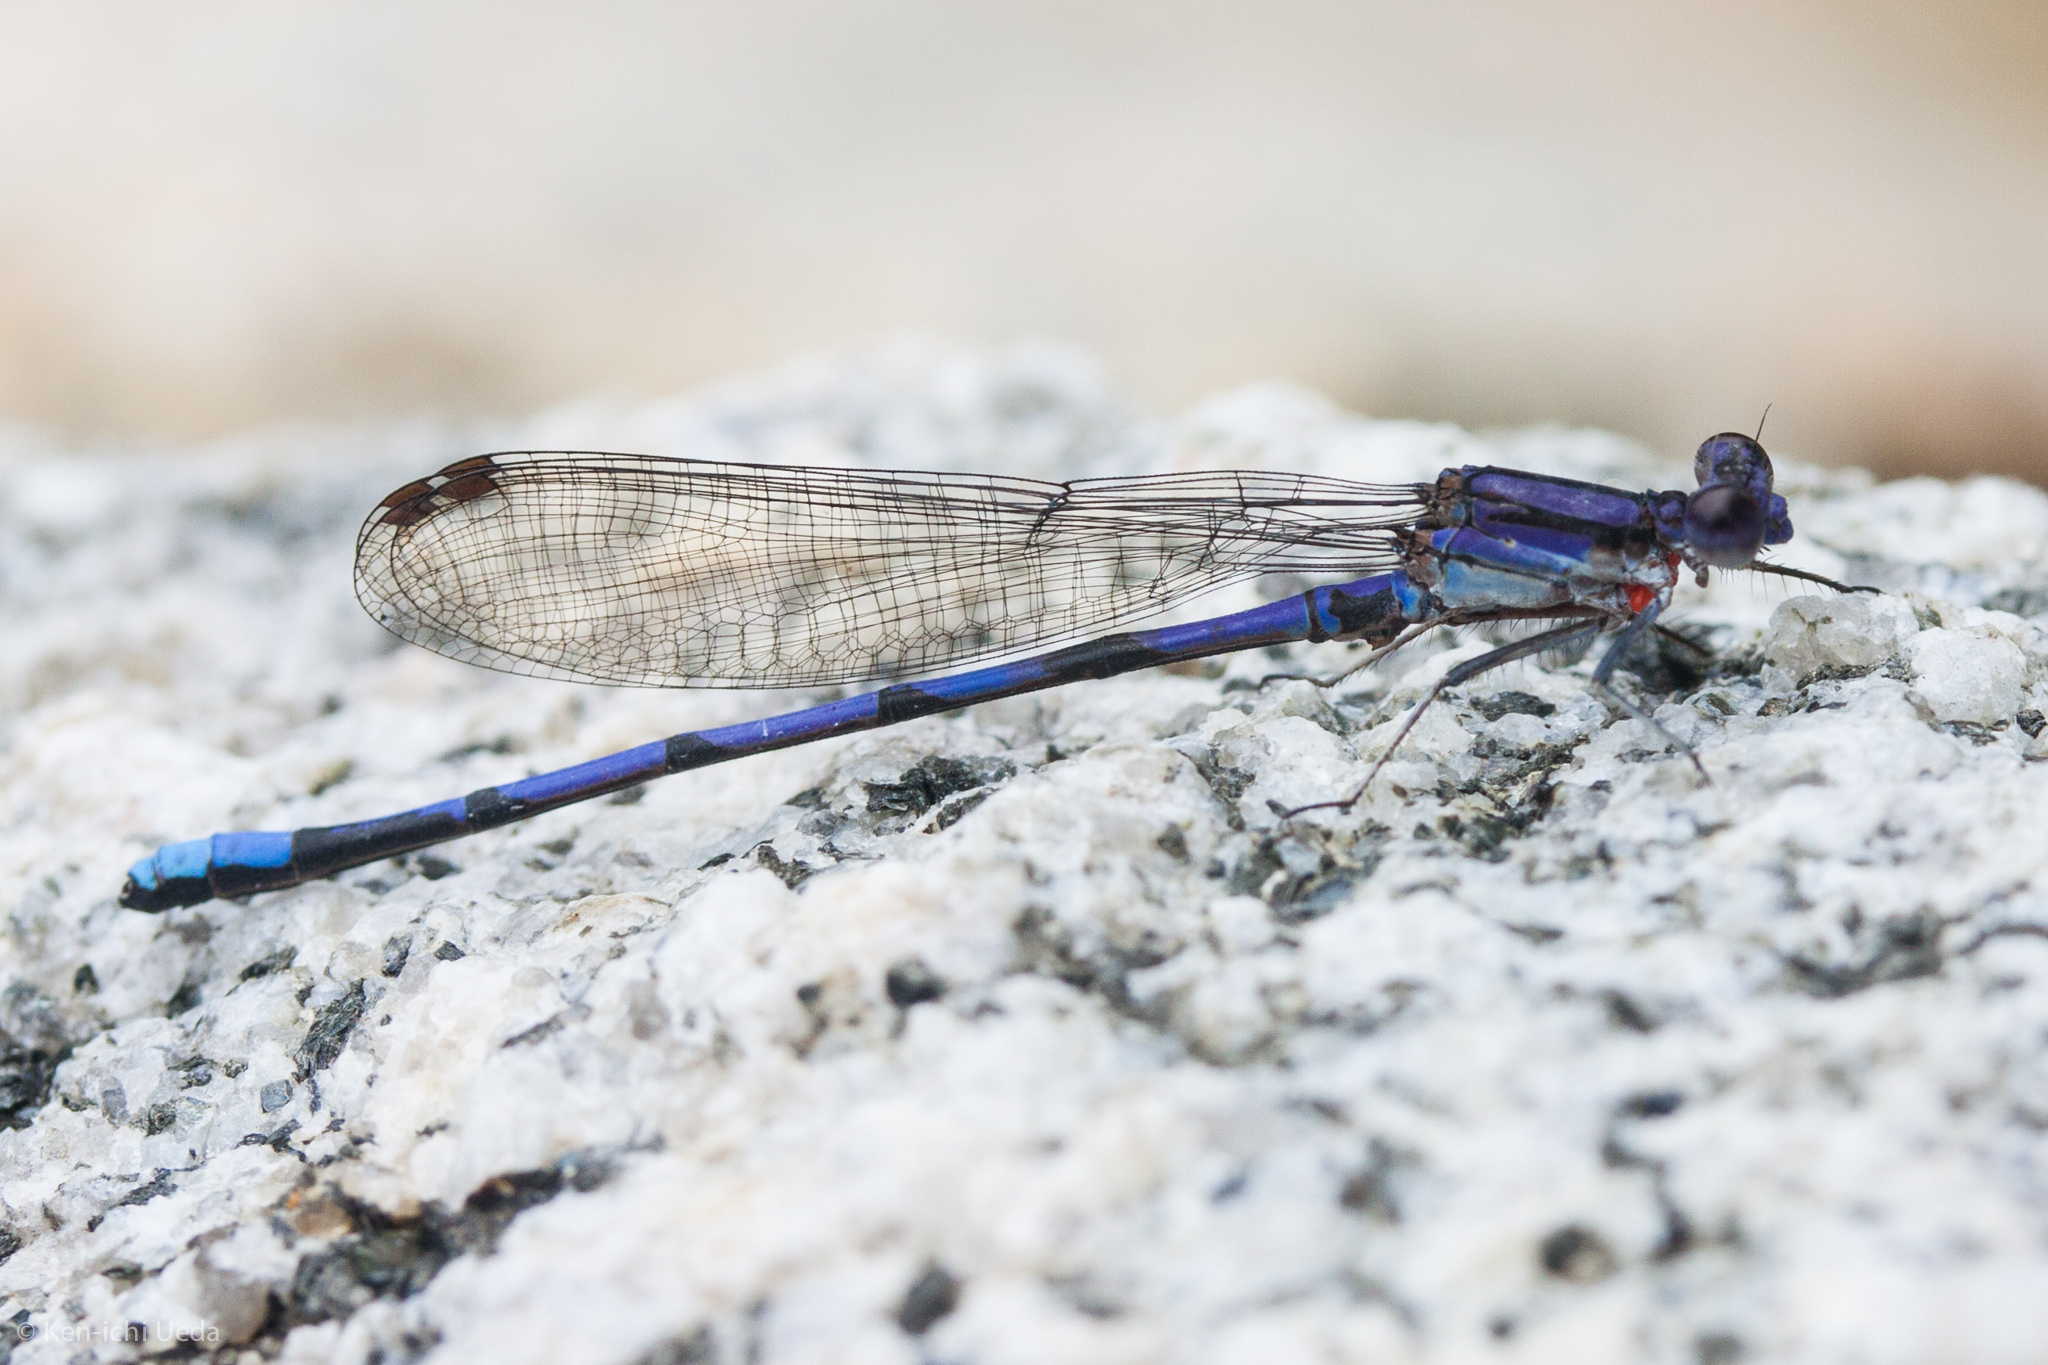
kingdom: Animalia
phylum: Arthropoda
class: Insecta
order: Odonata
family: Coenagrionidae
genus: Argia
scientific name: Argia fumipennis
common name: Variable dancer
